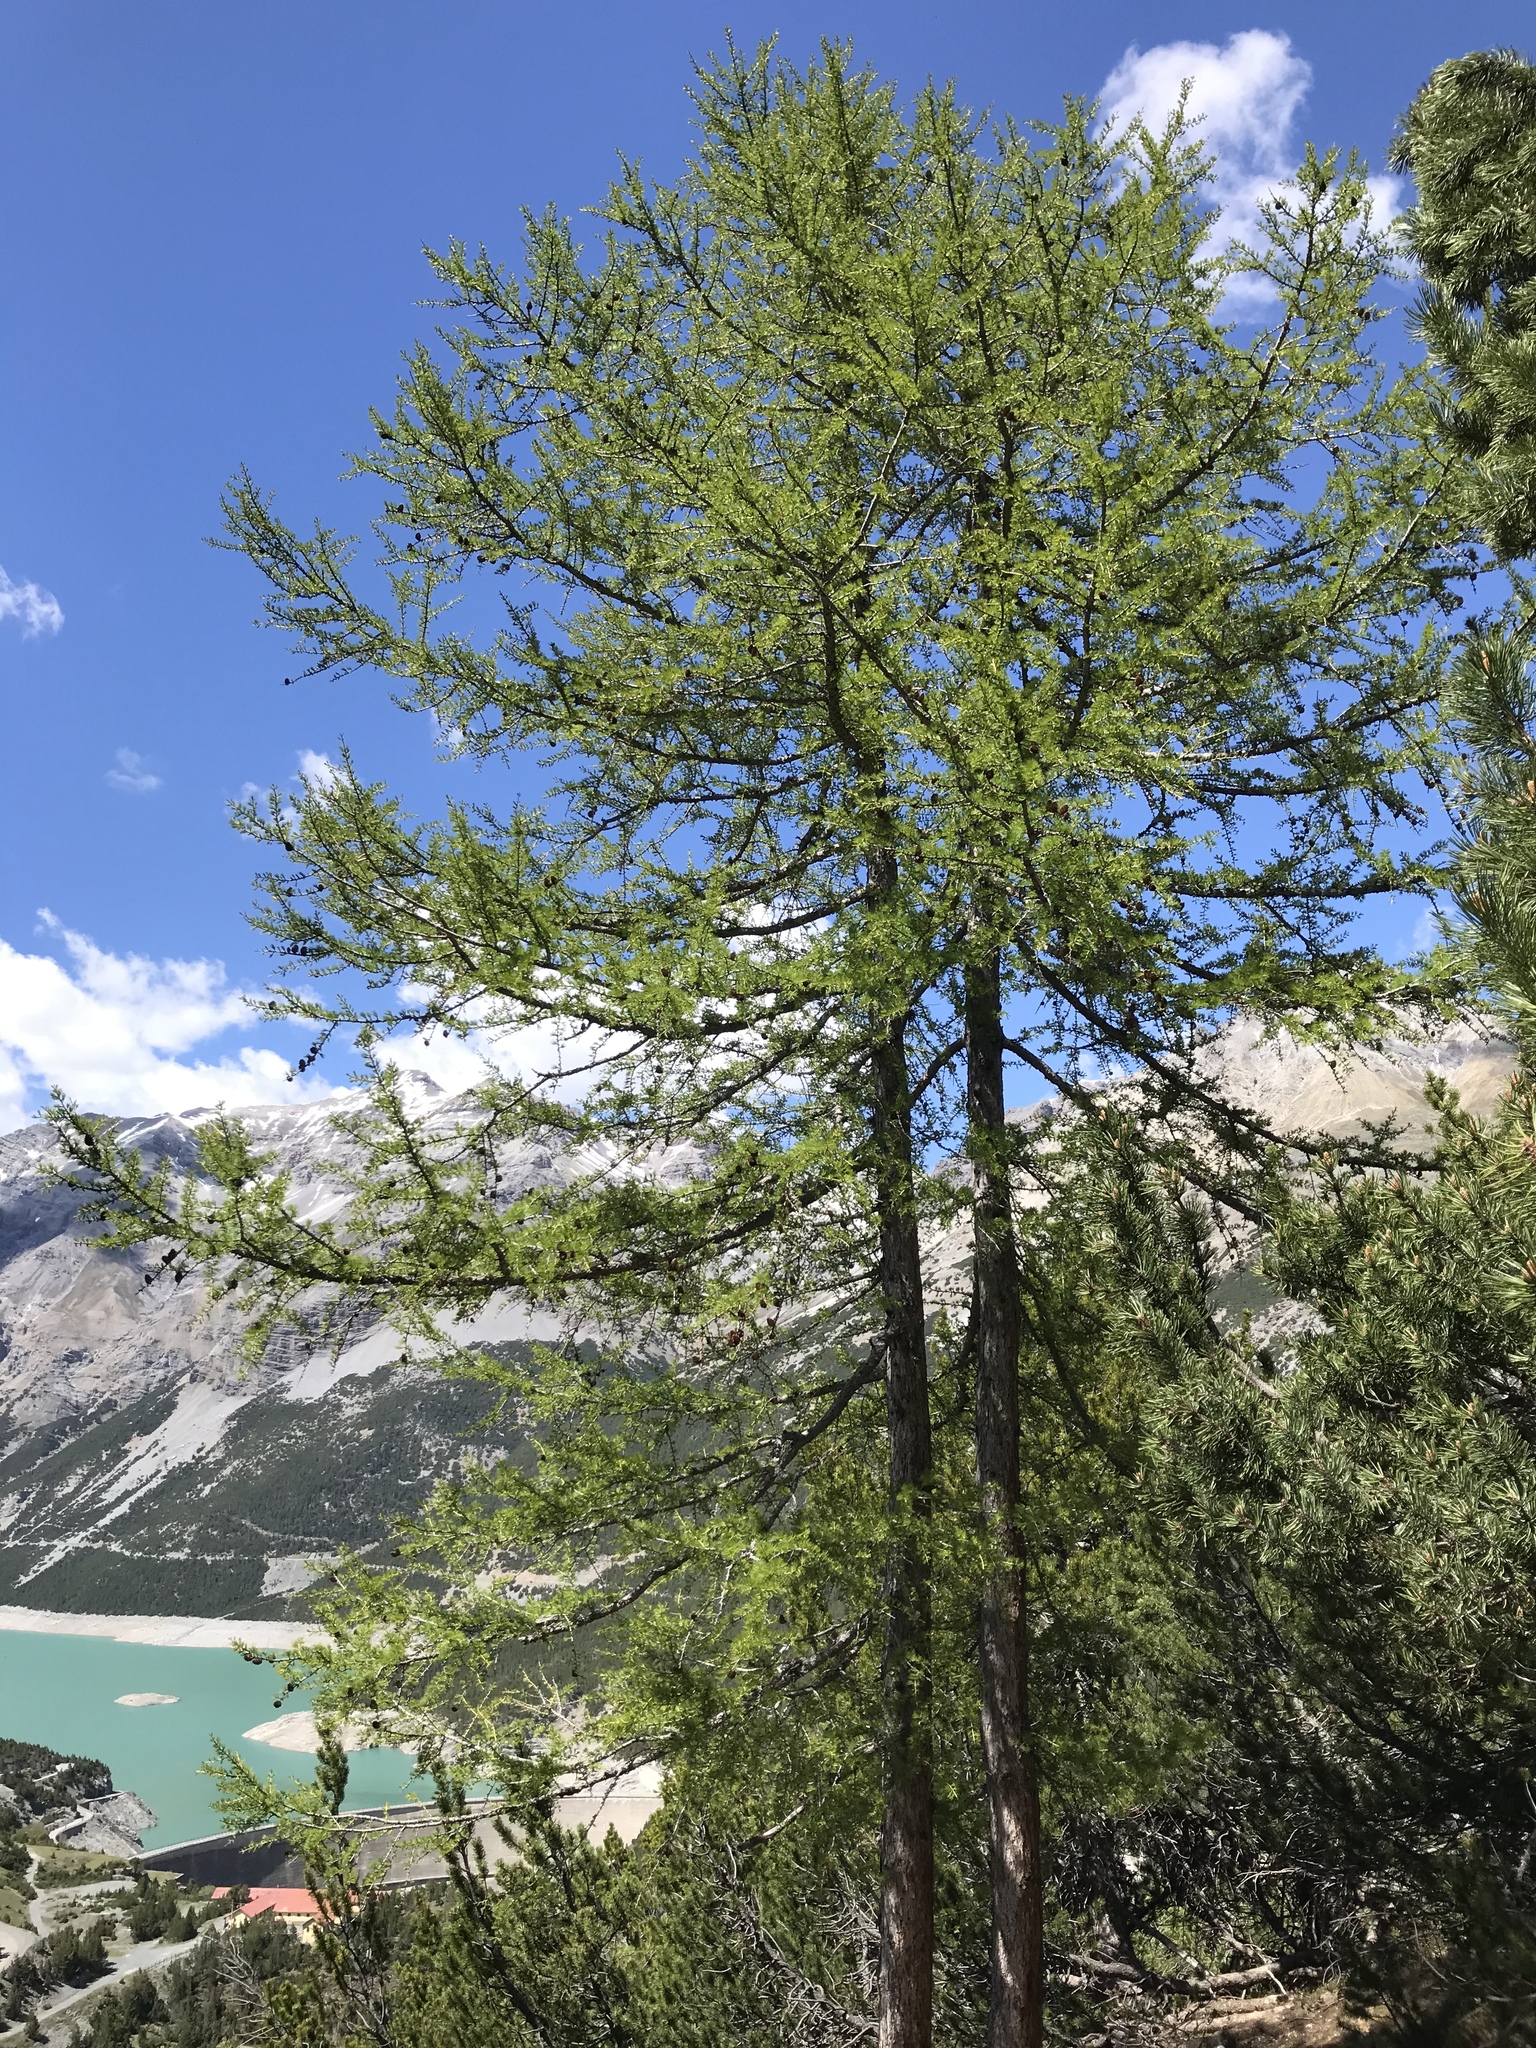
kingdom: Plantae
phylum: Tracheophyta
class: Pinopsida
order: Pinales
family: Pinaceae
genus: Larix
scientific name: Larix decidua
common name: European larch
